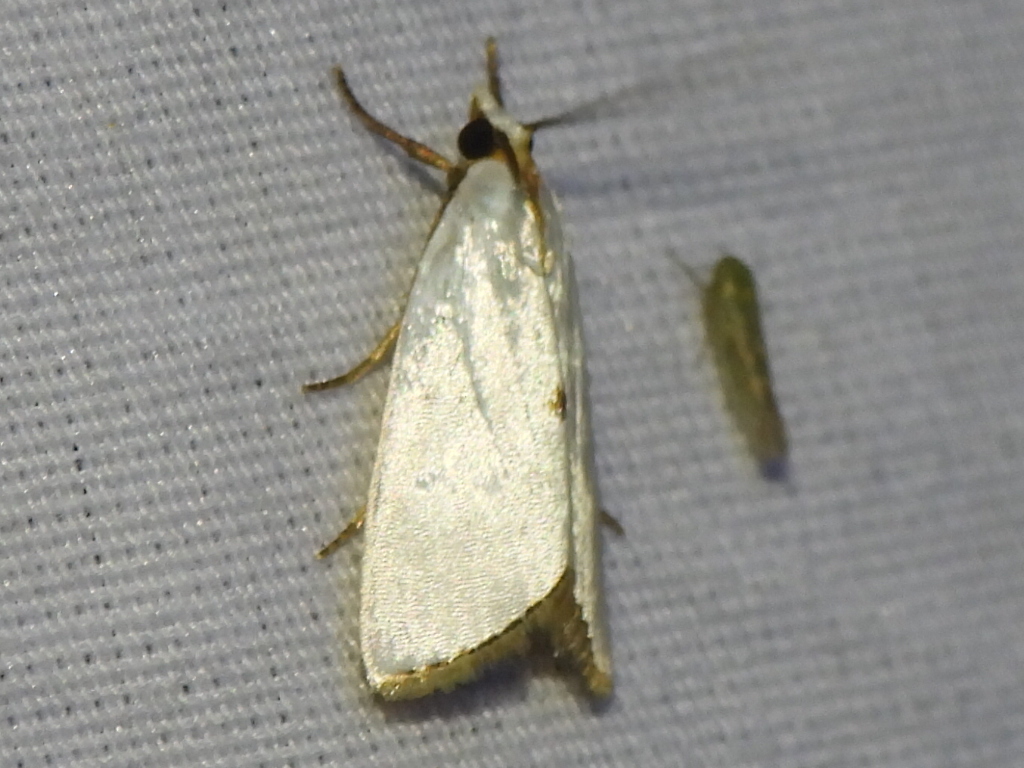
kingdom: Animalia
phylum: Arthropoda
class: Insecta
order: Lepidoptera
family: Crambidae
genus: Argyria
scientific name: Argyria nivalis
